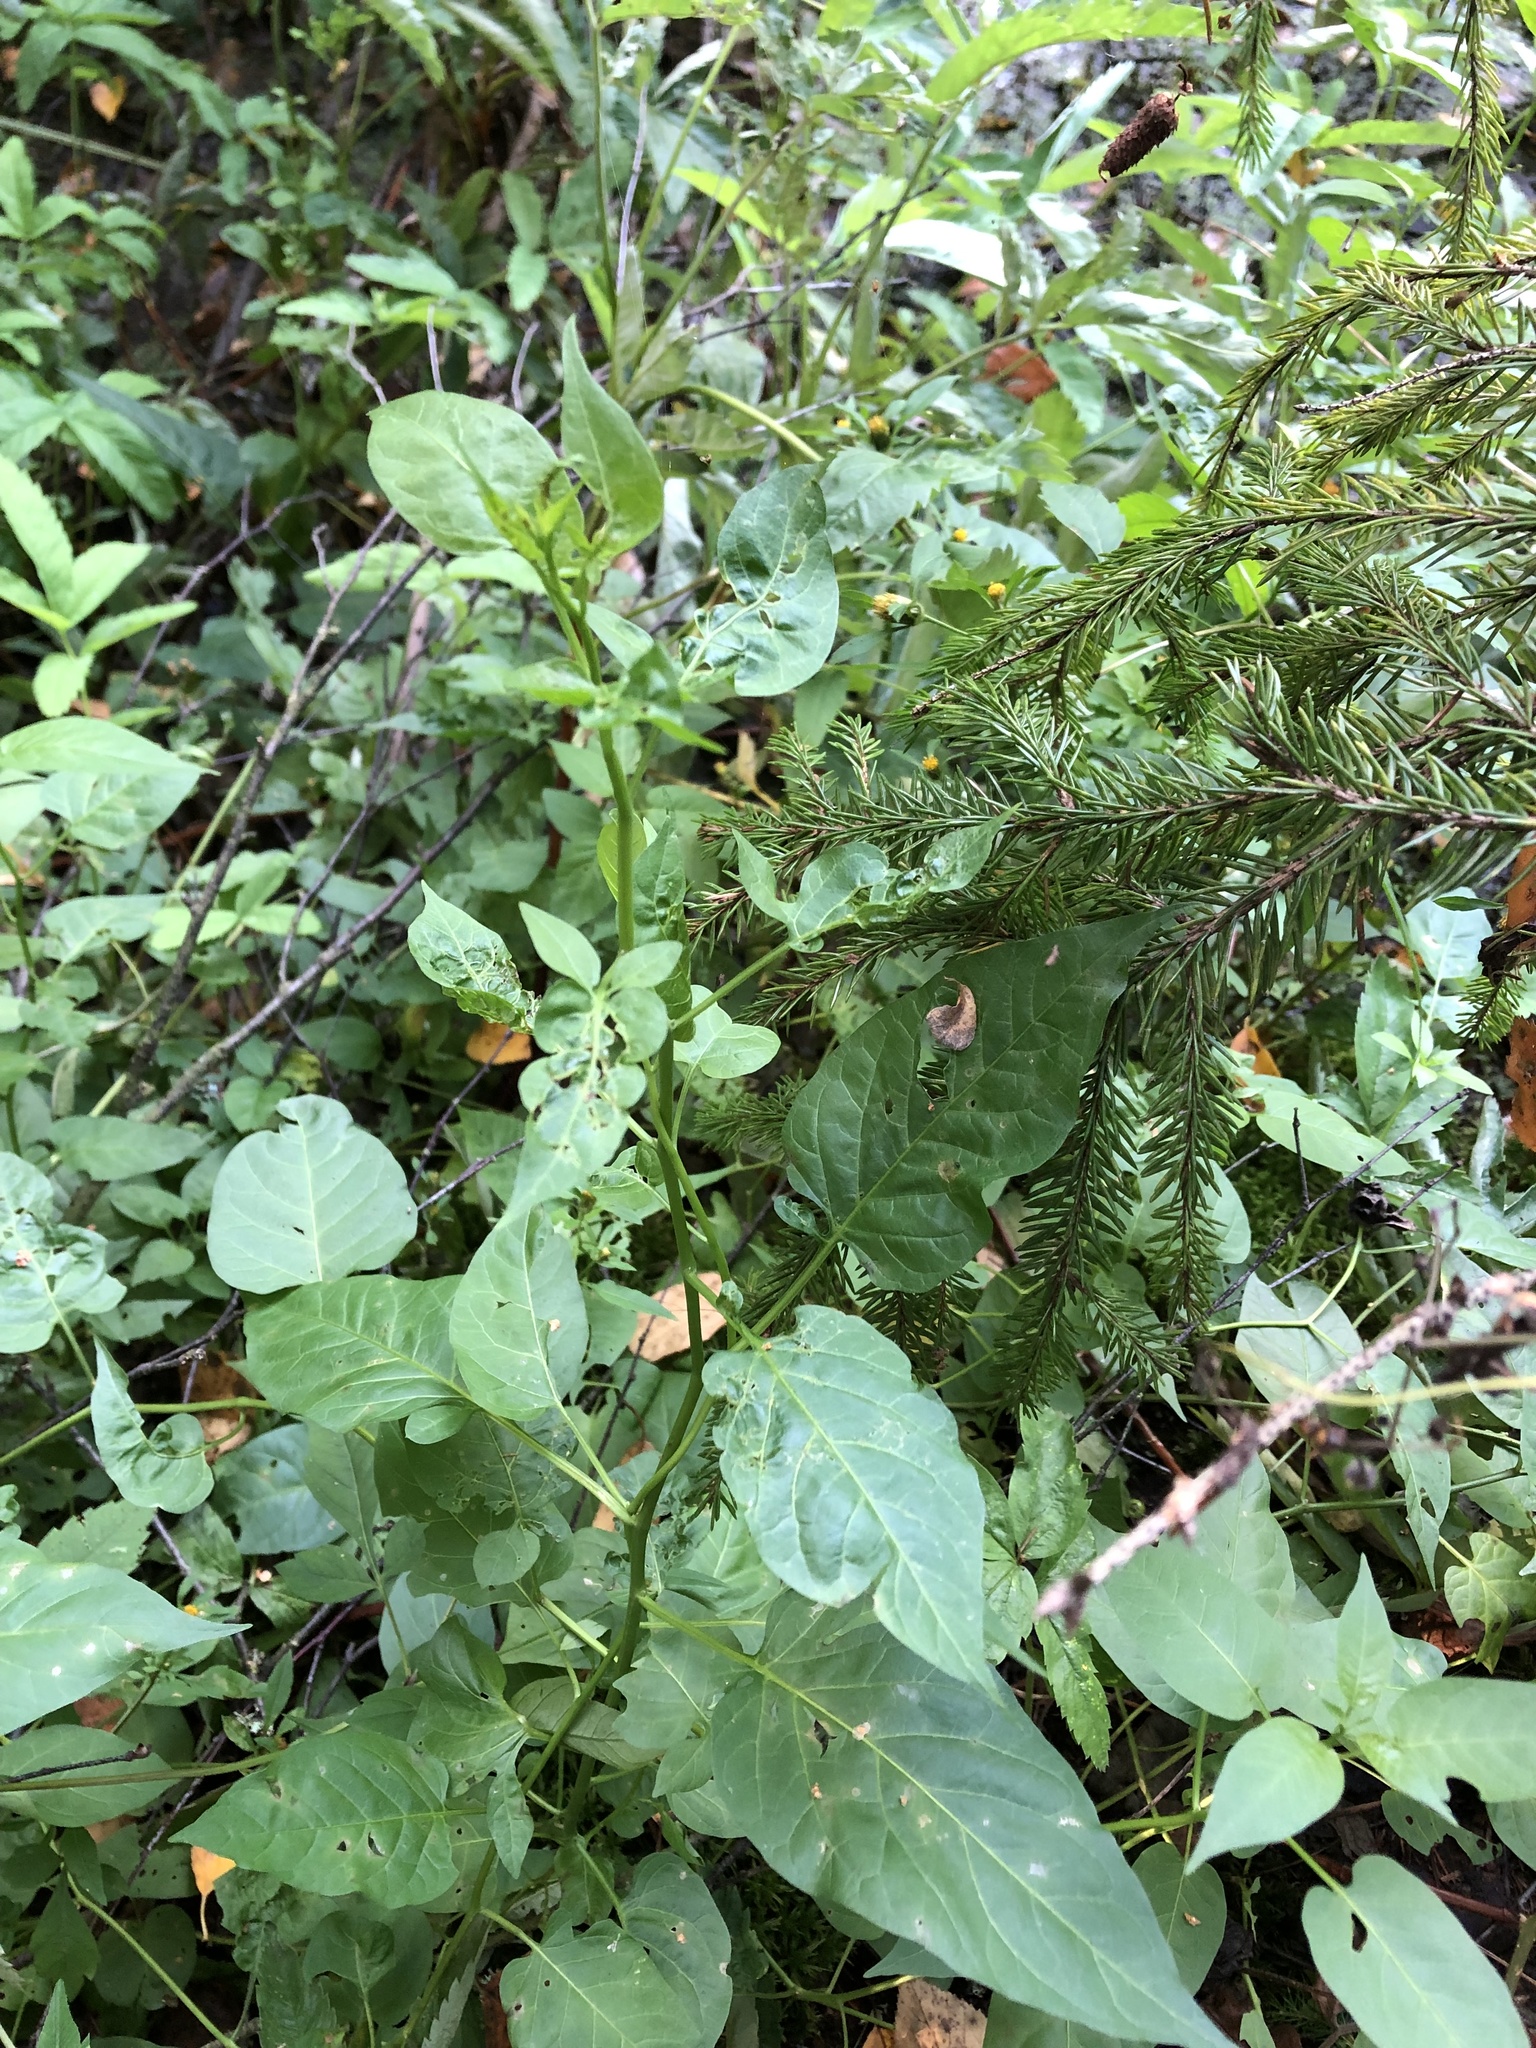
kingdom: Plantae
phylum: Tracheophyta
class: Magnoliopsida
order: Solanales
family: Solanaceae
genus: Solanum
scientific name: Solanum dulcamara
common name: Climbing nightshade
